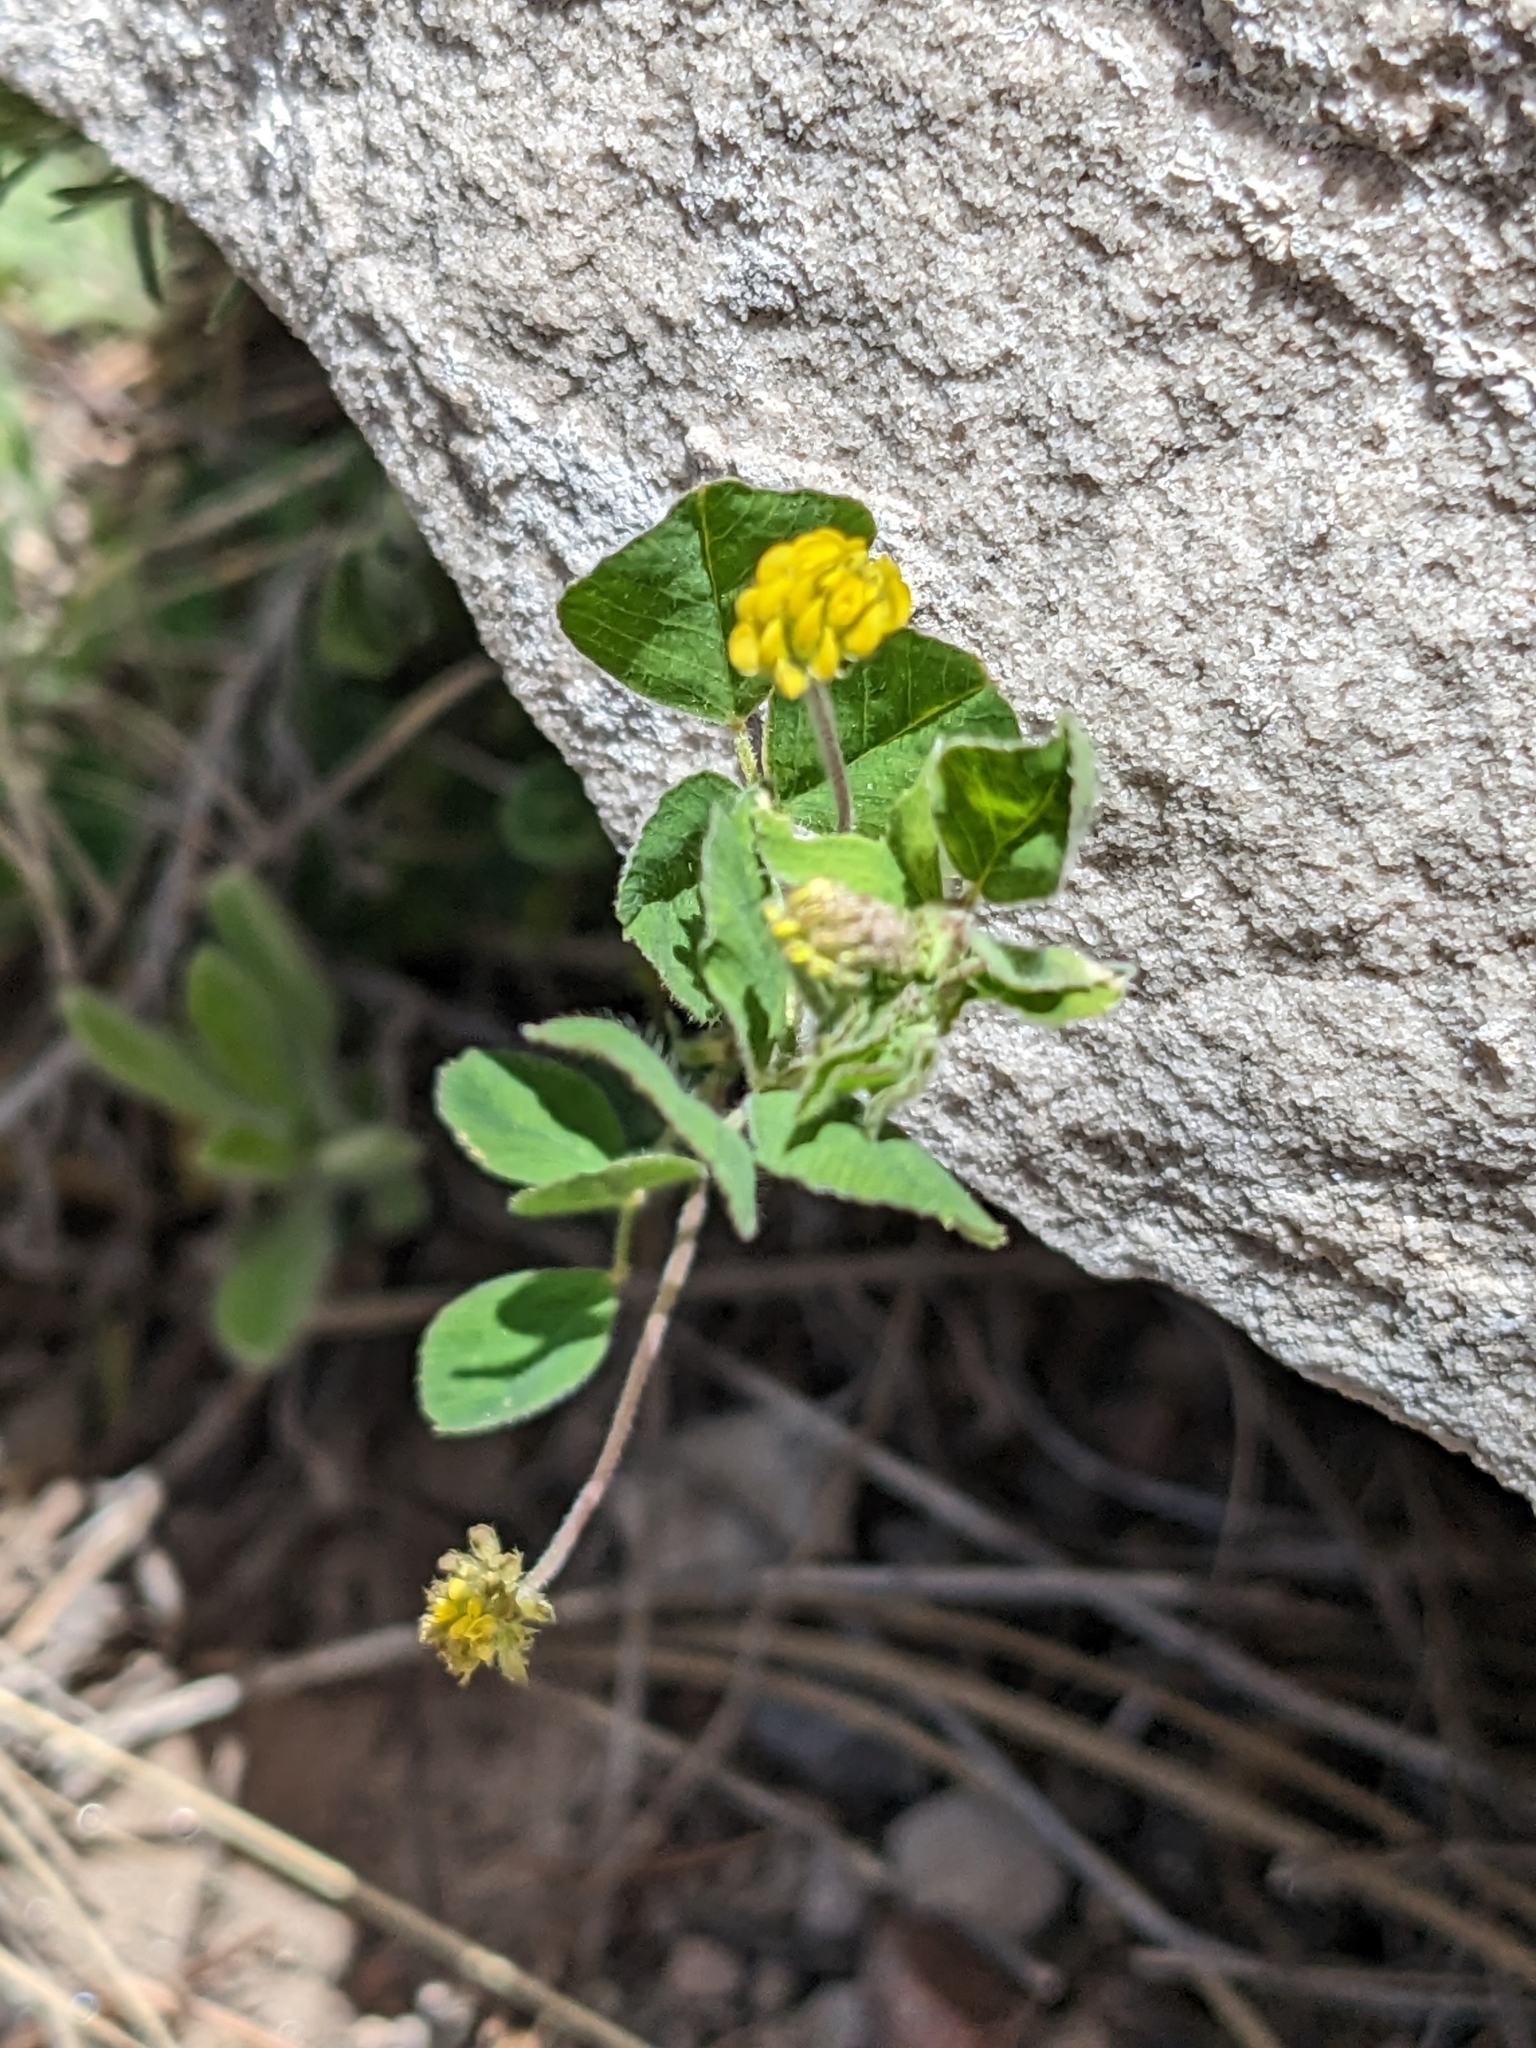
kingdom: Plantae
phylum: Tracheophyta
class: Magnoliopsida
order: Fabales
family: Fabaceae
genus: Medicago
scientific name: Medicago lupulina
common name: Black medick
